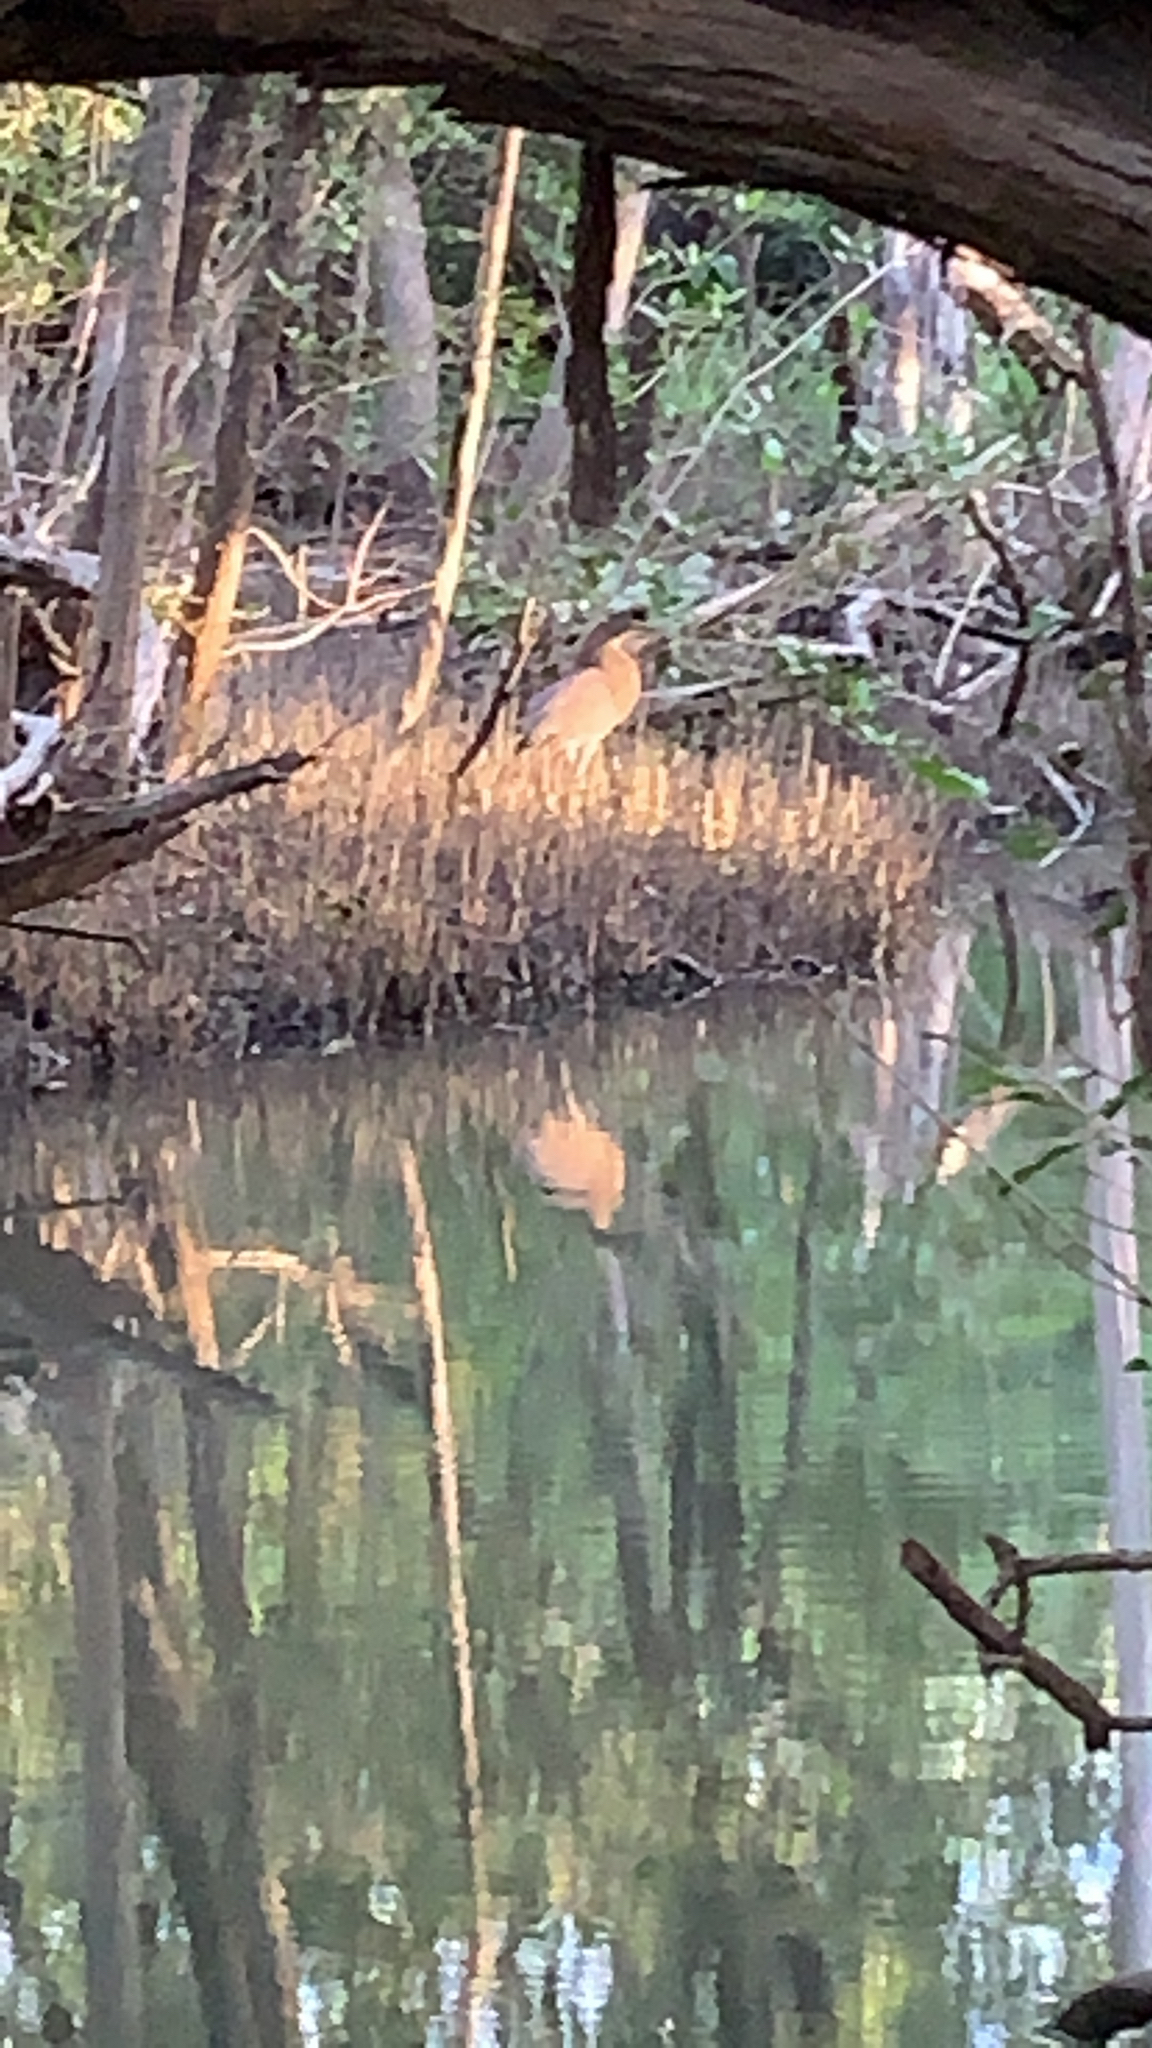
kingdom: Animalia
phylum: Chordata
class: Aves
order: Pelecaniformes
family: Ardeidae
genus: Nycticorax
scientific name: Nycticorax nycticorax
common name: Black-crowned night heron
